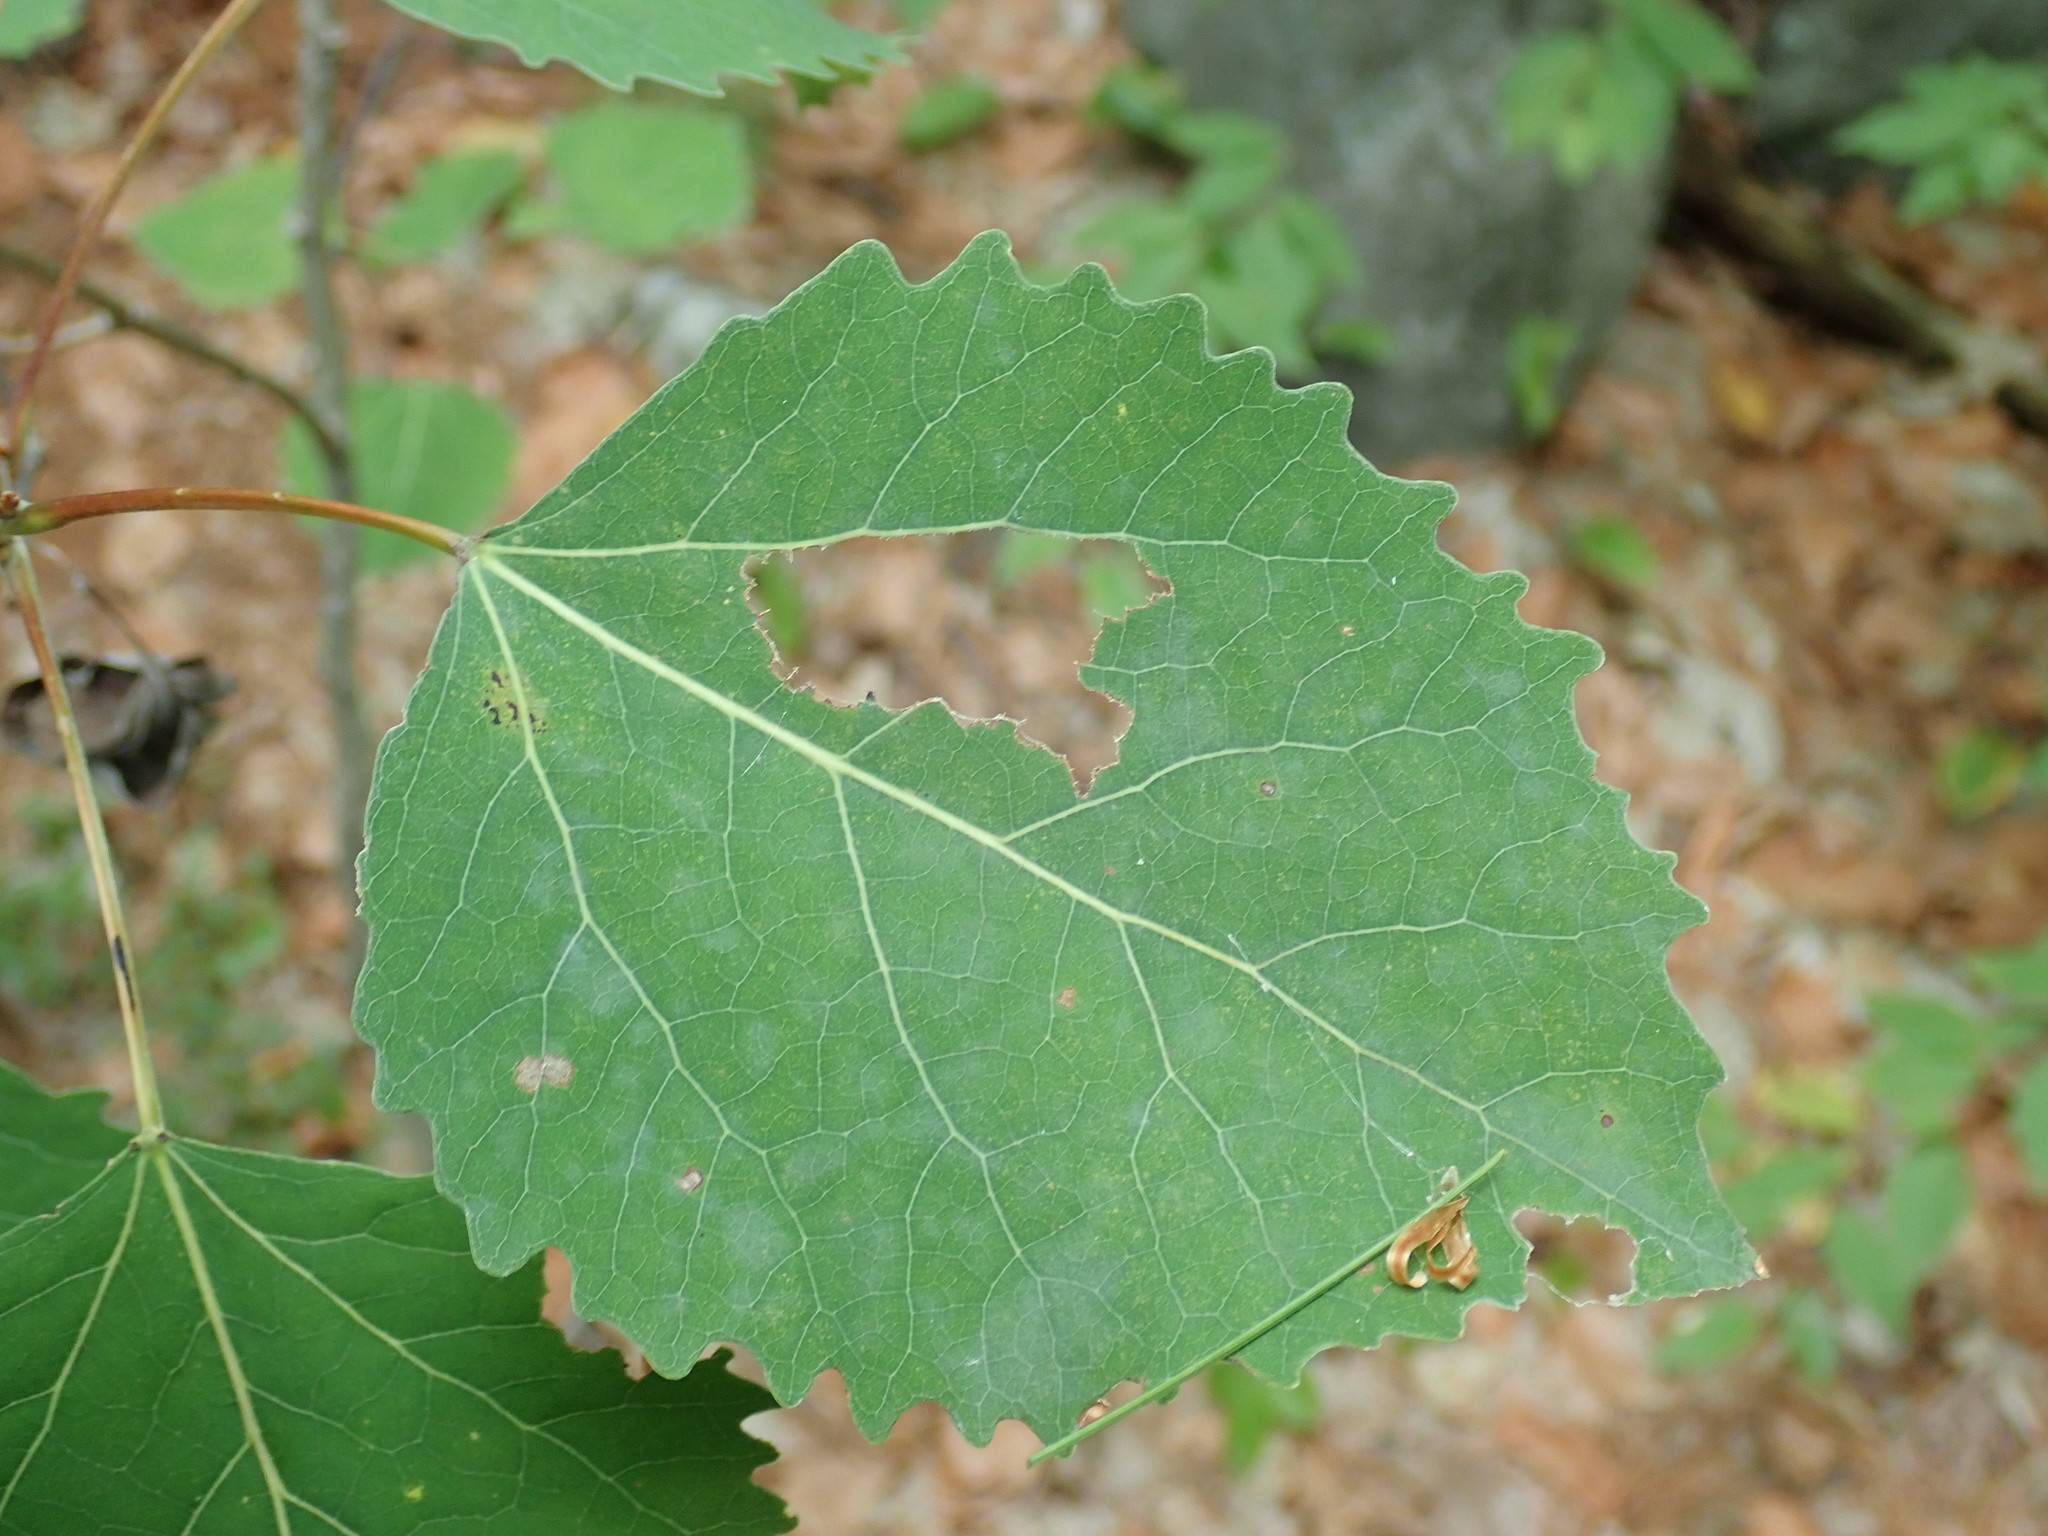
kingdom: Plantae
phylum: Tracheophyta
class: Magnoliopsida
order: Malpighiales
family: Salicaceae
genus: Populus
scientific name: Populus grandidentata
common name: Bigtooth aspen
